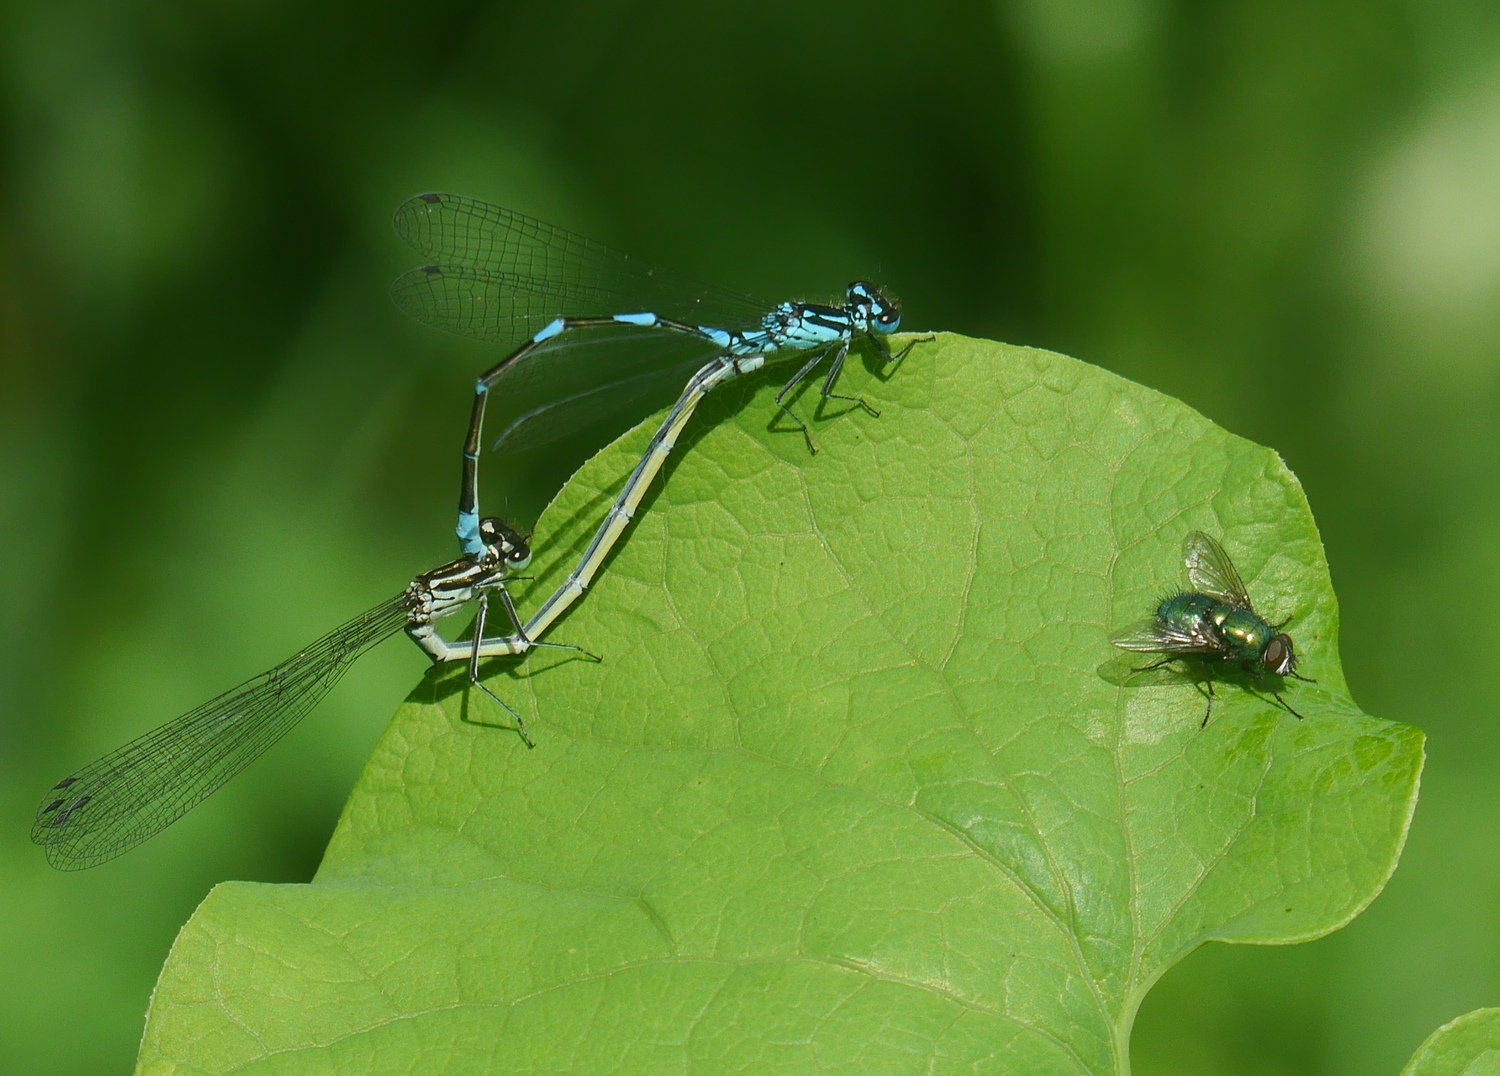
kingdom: Animalia
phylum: Arthropoda
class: Insecta
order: Odonata
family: Coenagrionidae
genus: Coenagrion
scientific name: Coenagrion pulchellum
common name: Variable bluet
